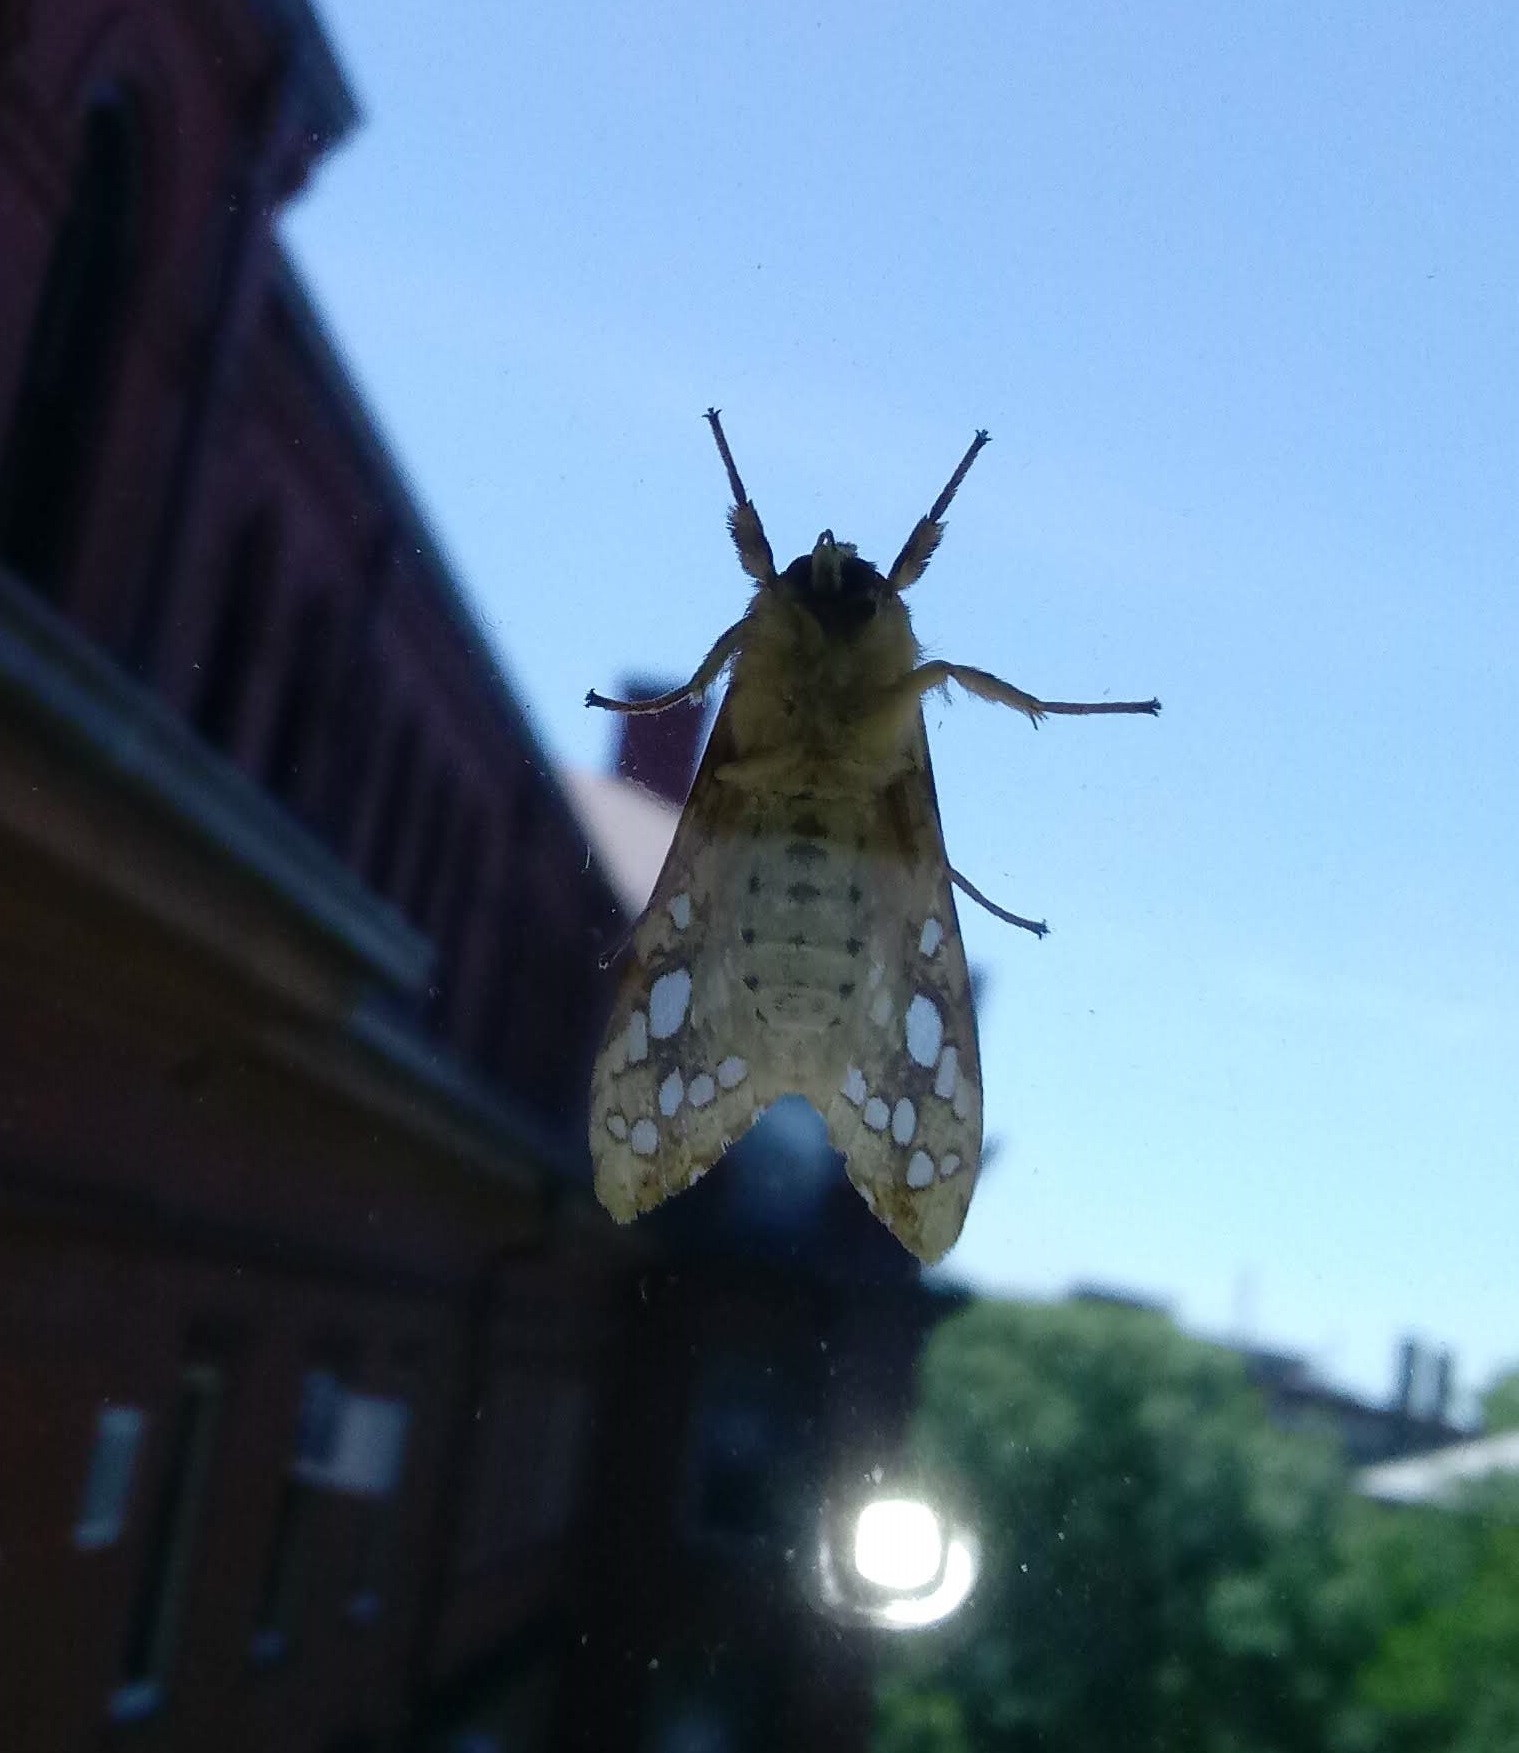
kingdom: Animalia
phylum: Arthropoda
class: Insecta
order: Lepidoptera
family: Erebidae
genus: Lophocampa
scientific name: Lophocampa caryae
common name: Hickory tussock moth
